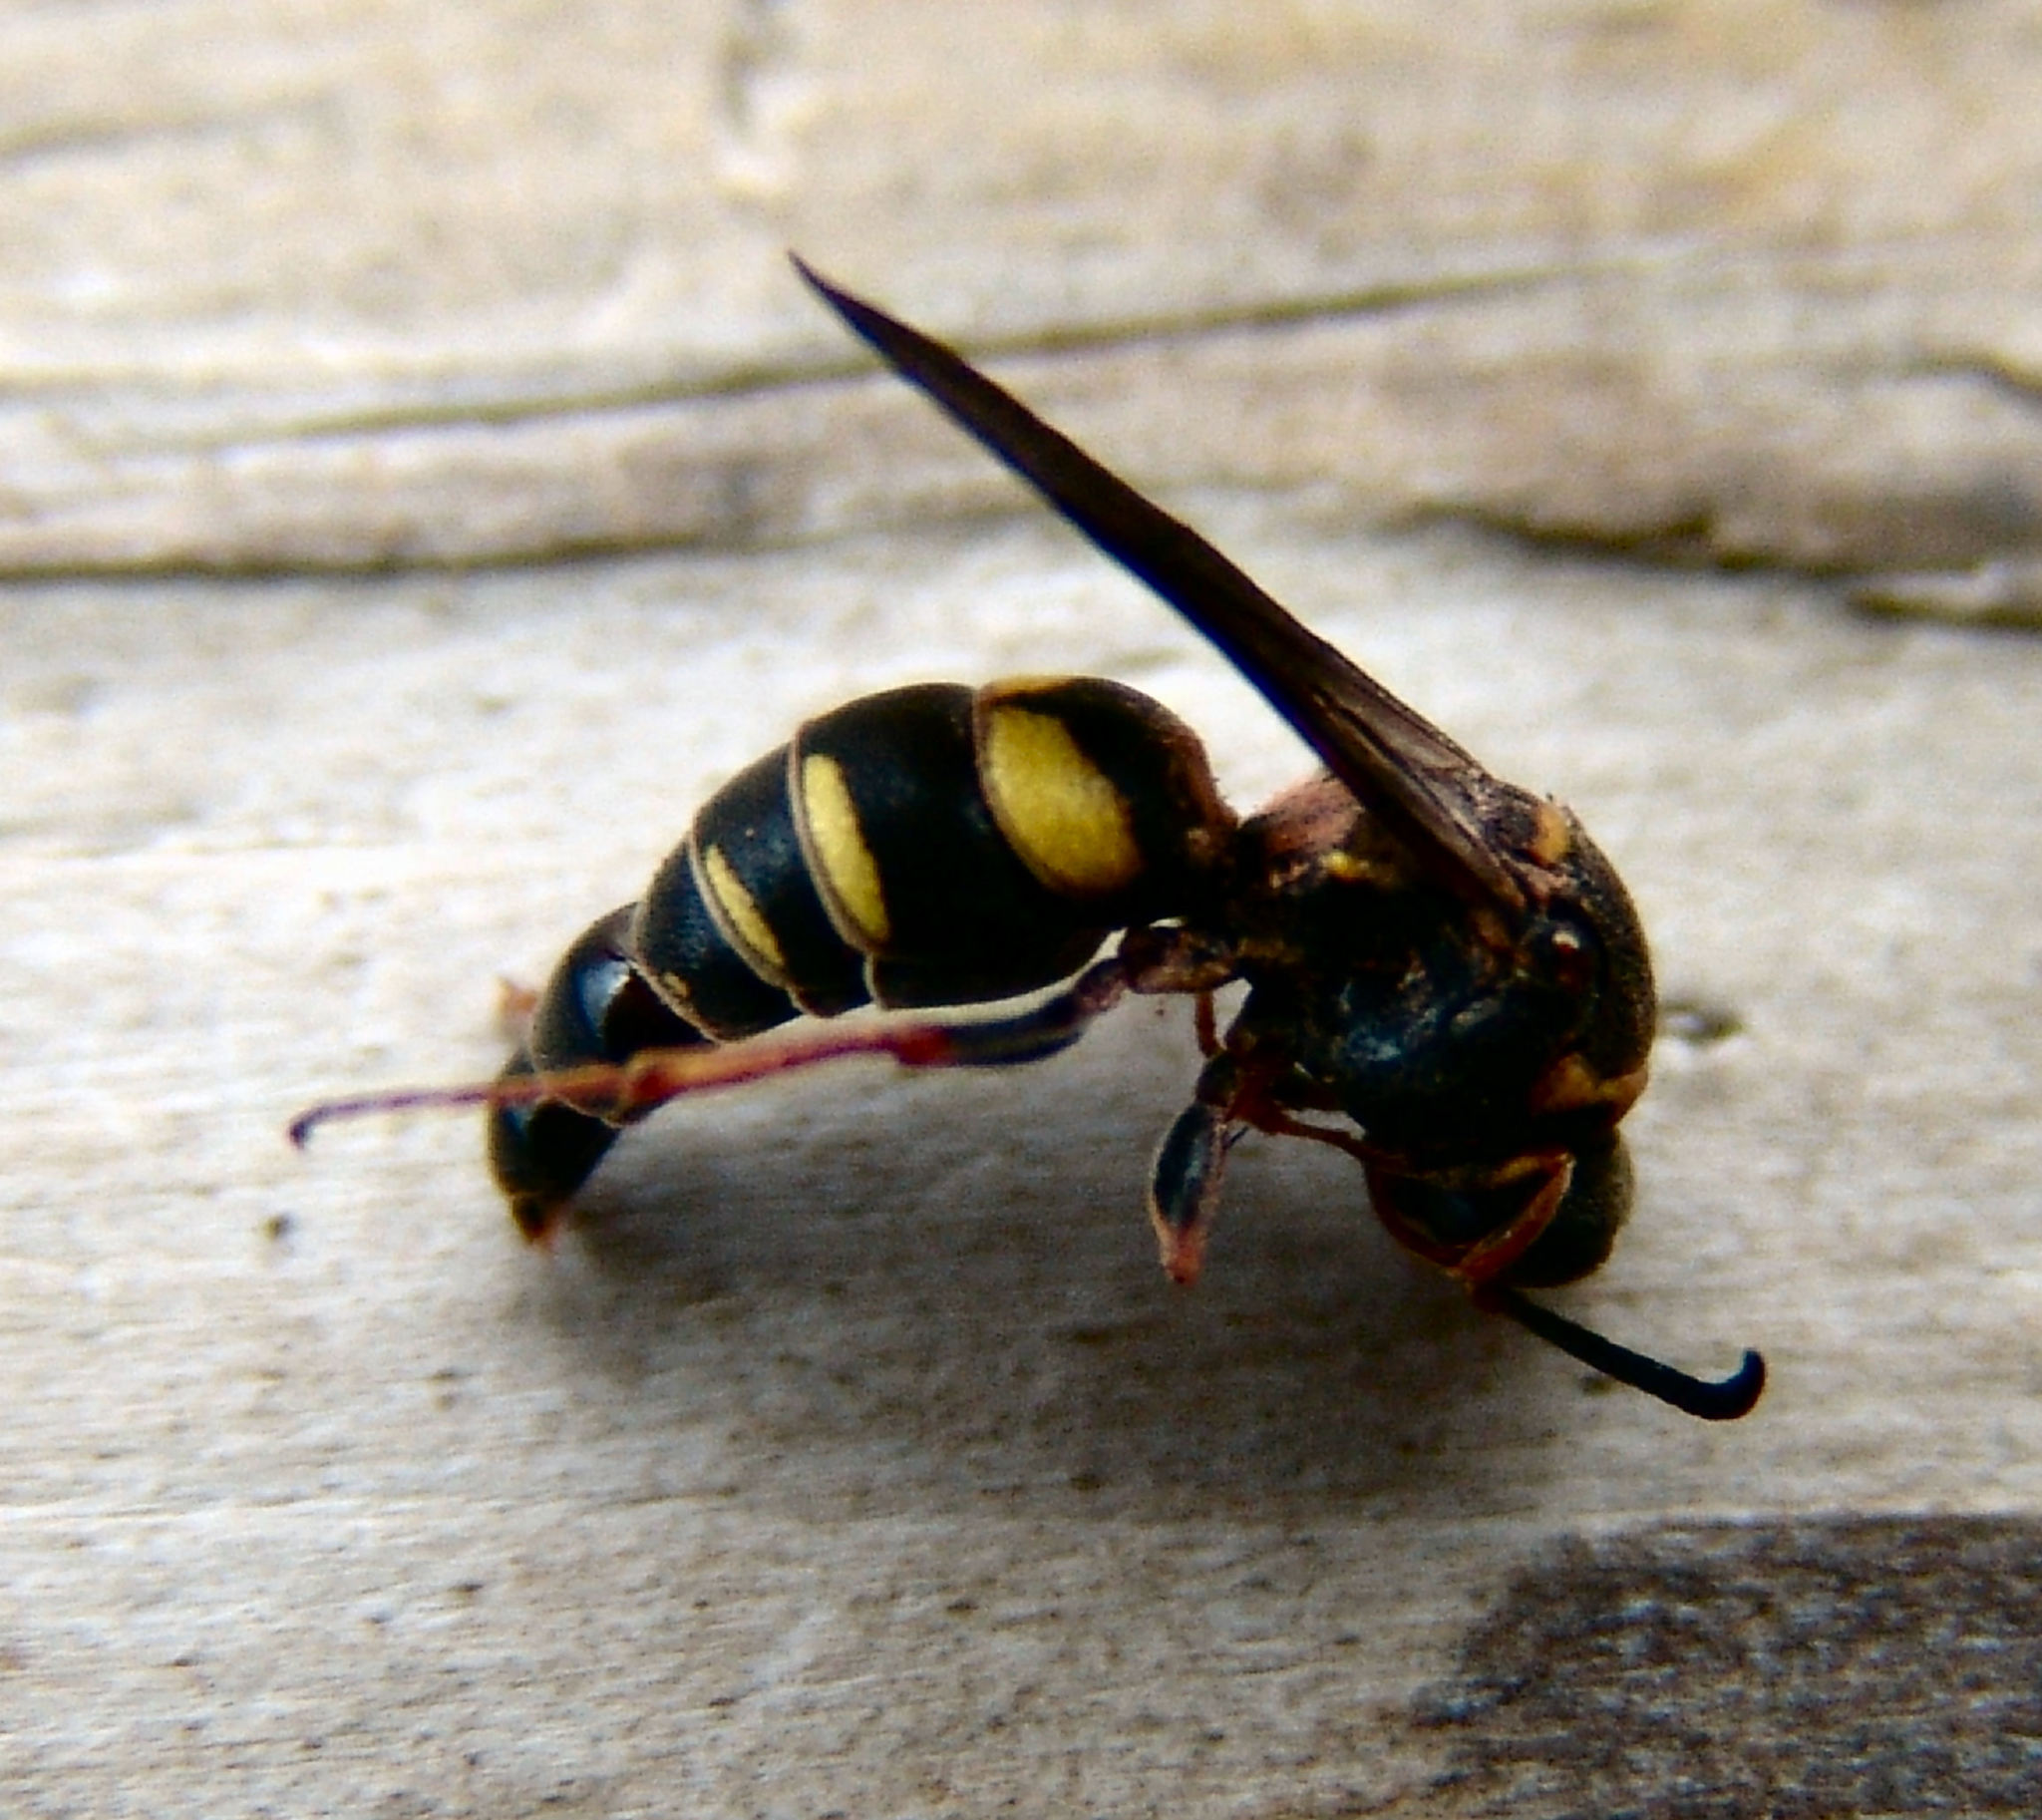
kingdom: Animalia
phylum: Arthropoda
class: Insecta
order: Hymenoptera
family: Crabronidae
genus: Nysson
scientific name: Nysson aequalis
